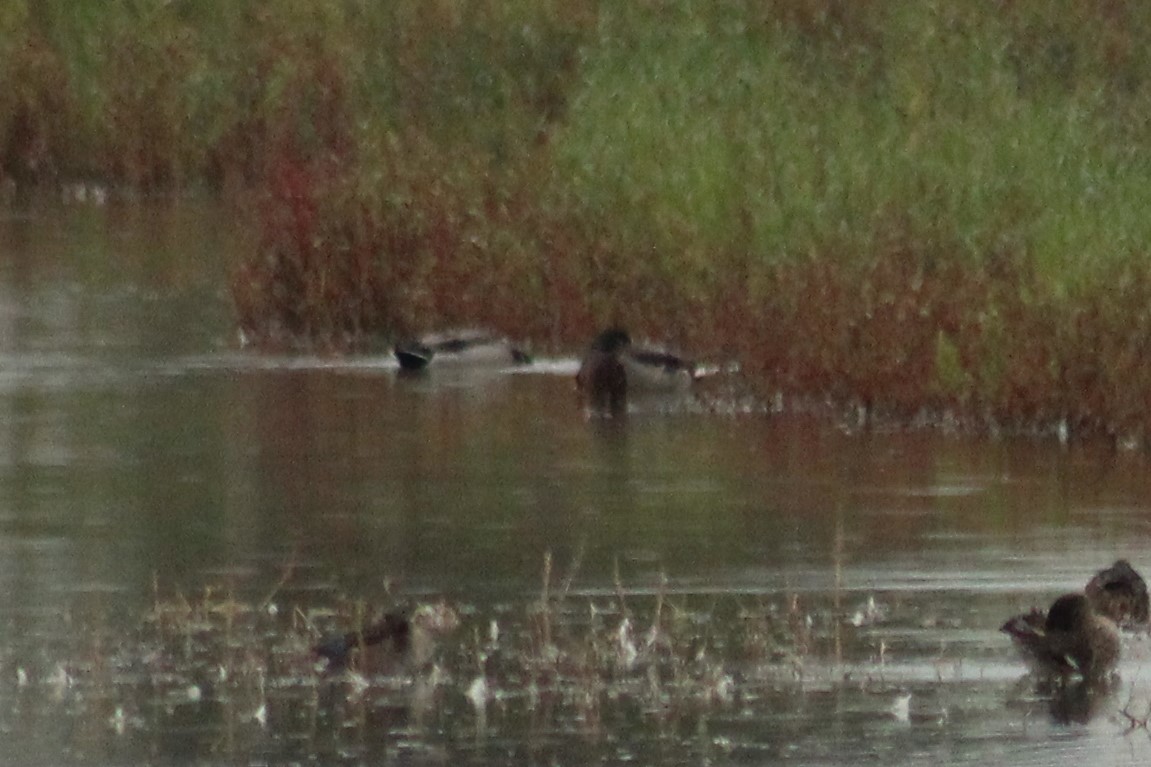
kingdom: Animalia
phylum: Chordata
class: Aves
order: Anseriformes
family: Anatidae
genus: Anas
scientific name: Anas platyrhynchos
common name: Mallard
